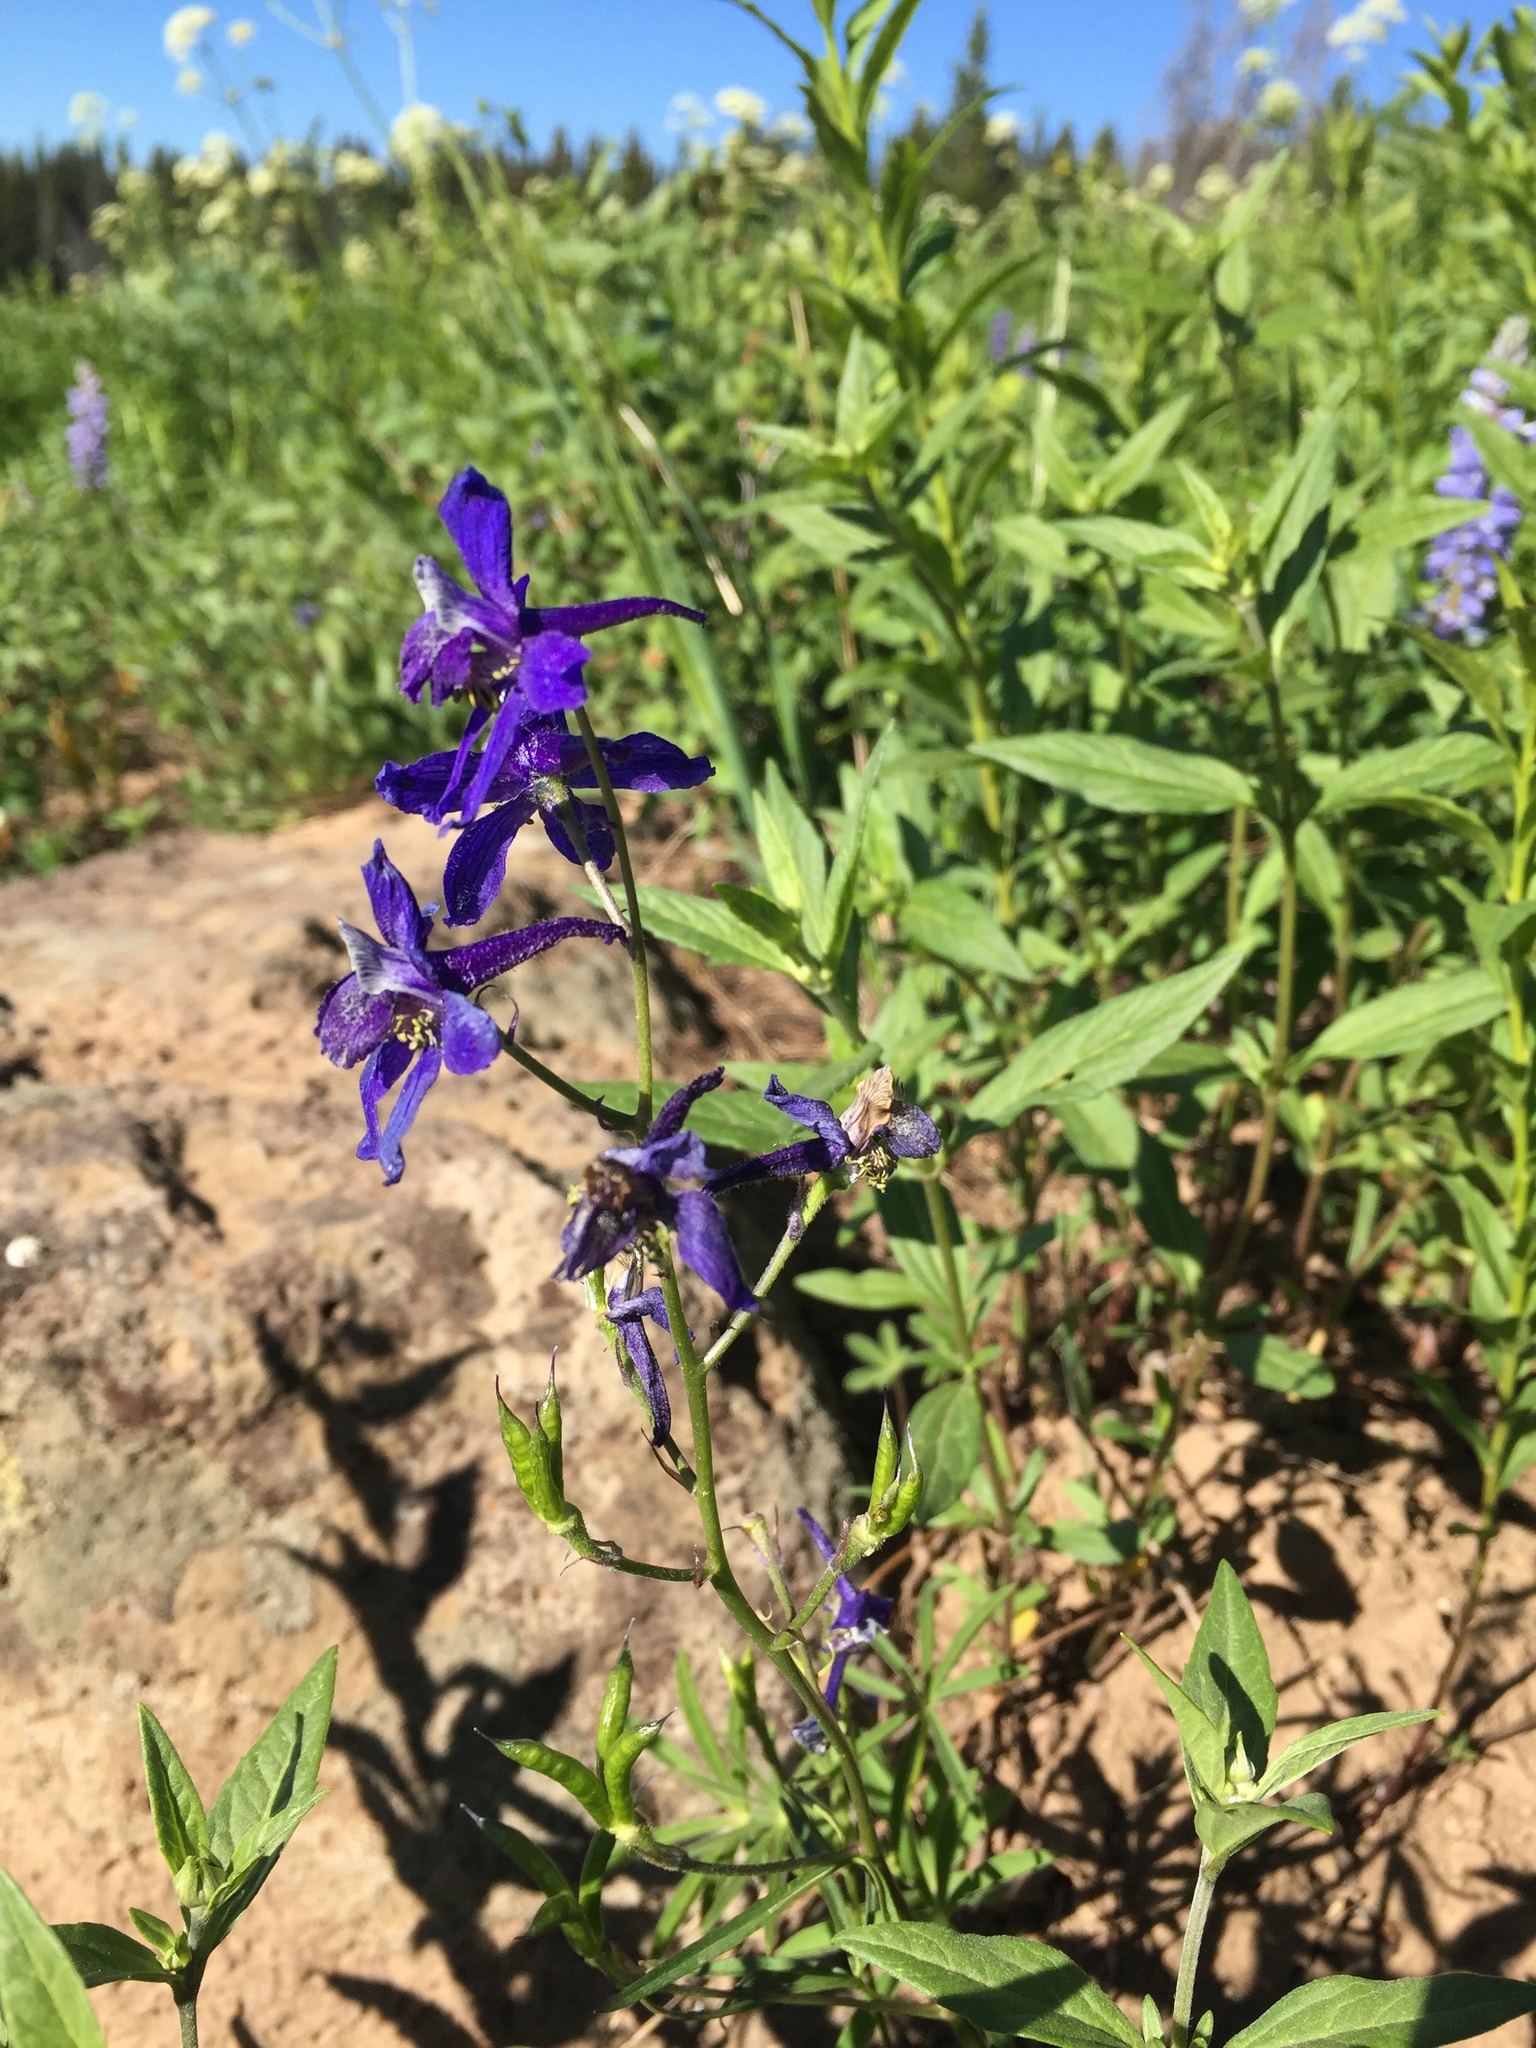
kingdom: Plantae
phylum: Tracheophyta
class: Magnoliopsida
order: Ranunculales
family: Ranunculaceae
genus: Delphinium
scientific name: Delphinium nuttallianum
